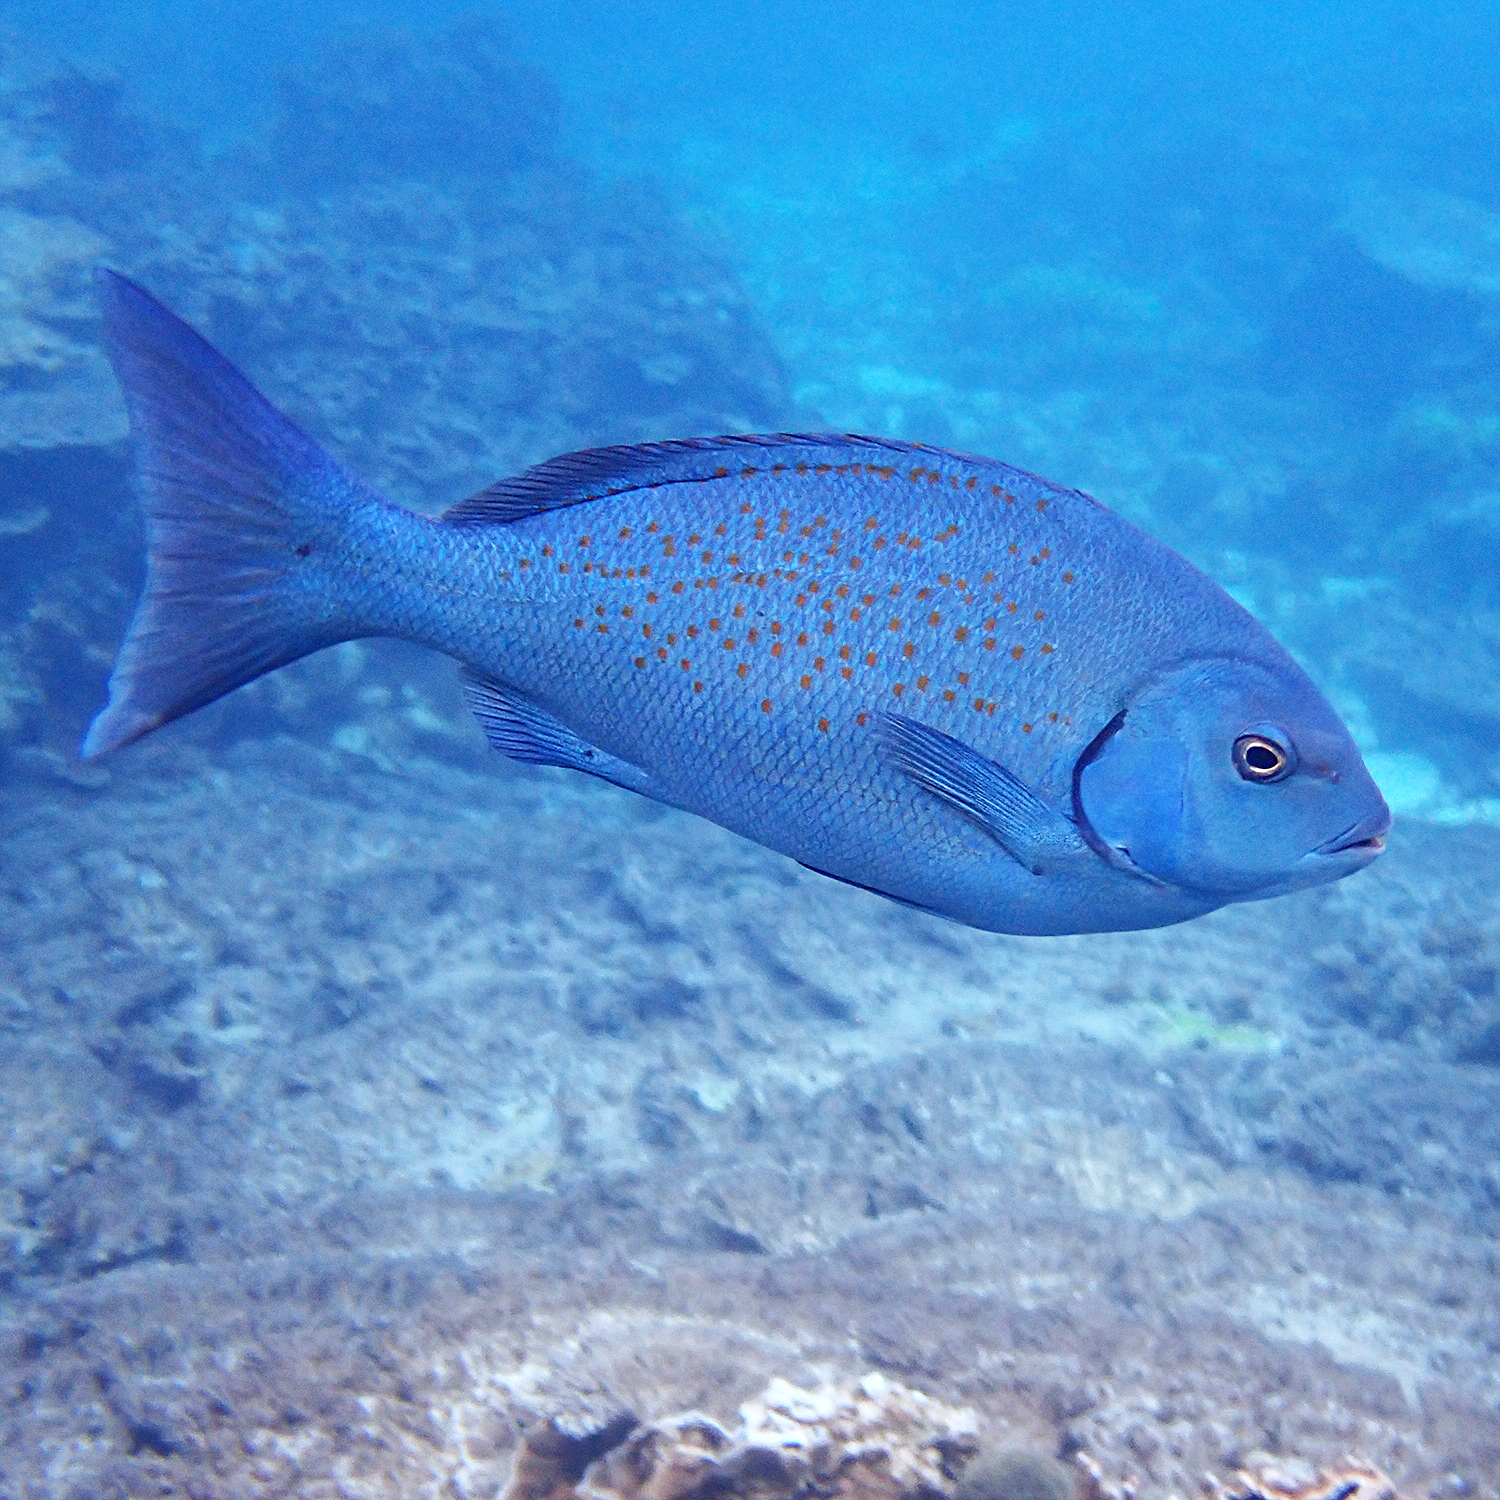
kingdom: Animalia
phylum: Chordata
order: Perciformes
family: Kyphosidae
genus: Girella
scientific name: Girella cyanea
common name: Bluefish
